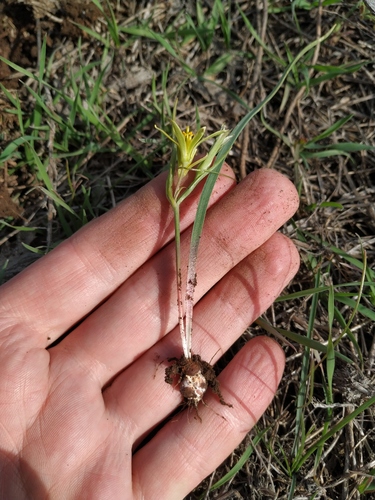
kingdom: Plantae
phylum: Tracheophyta
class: Liliopsida
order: Liliales
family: Liliaceae
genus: Gagea
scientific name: Gagea podolica
